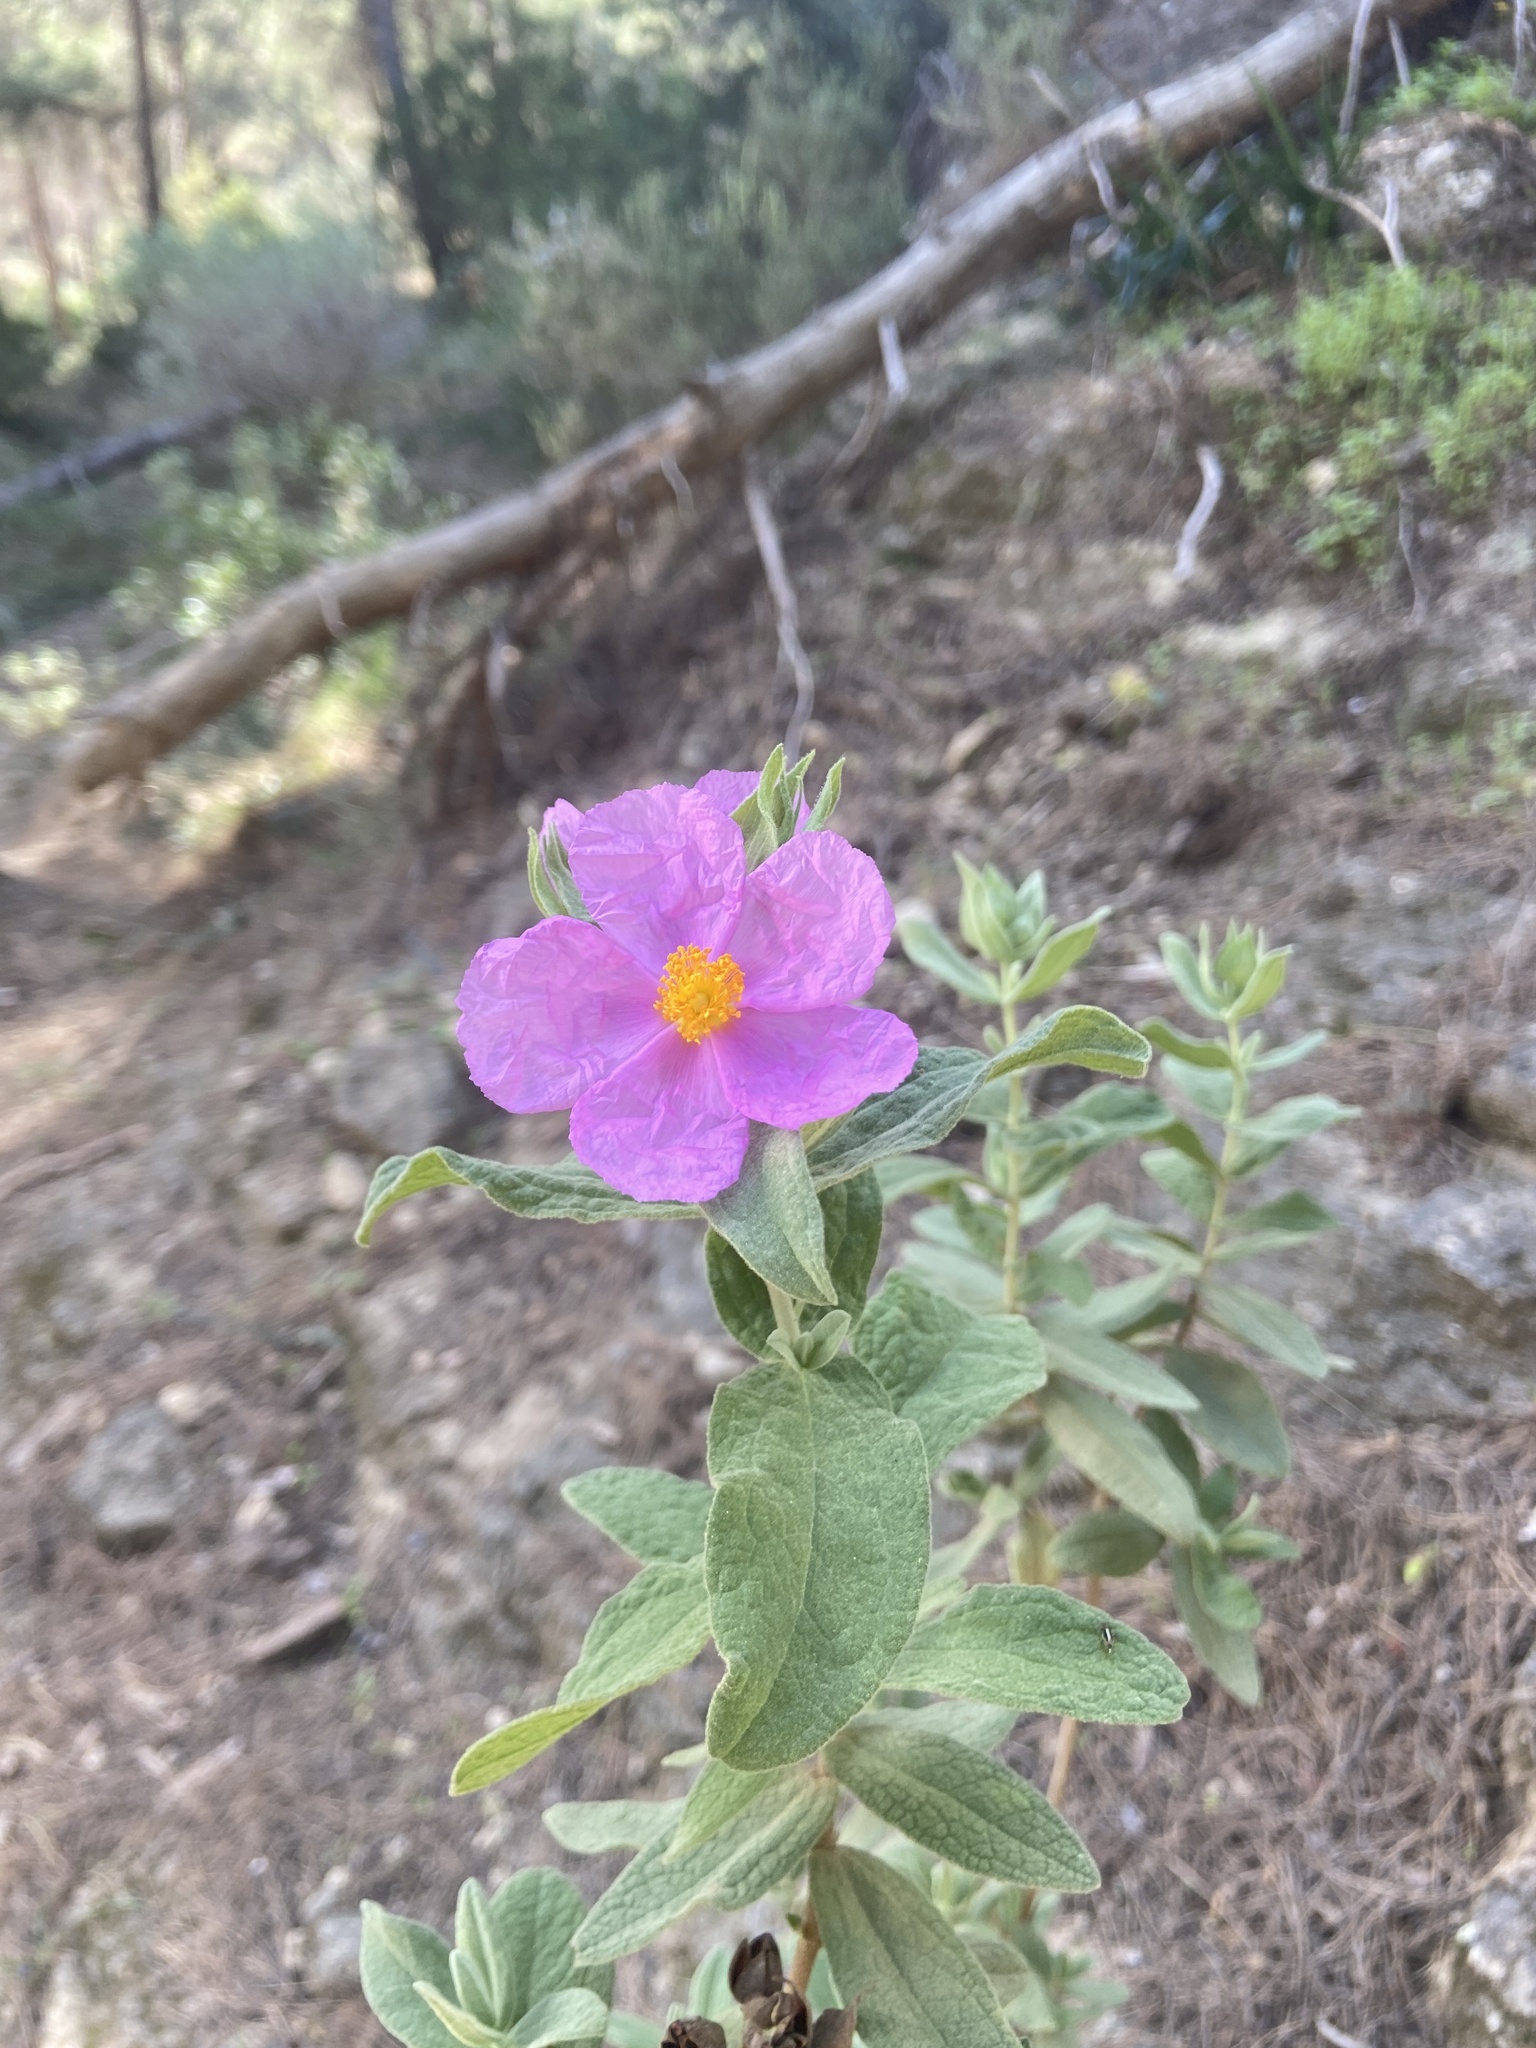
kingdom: Plantae
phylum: Tracheophyta
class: Magnoliopsida
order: Malvales
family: Cistaceae
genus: Cistus
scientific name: Cistus albidus
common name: White-leaf rock-rose
